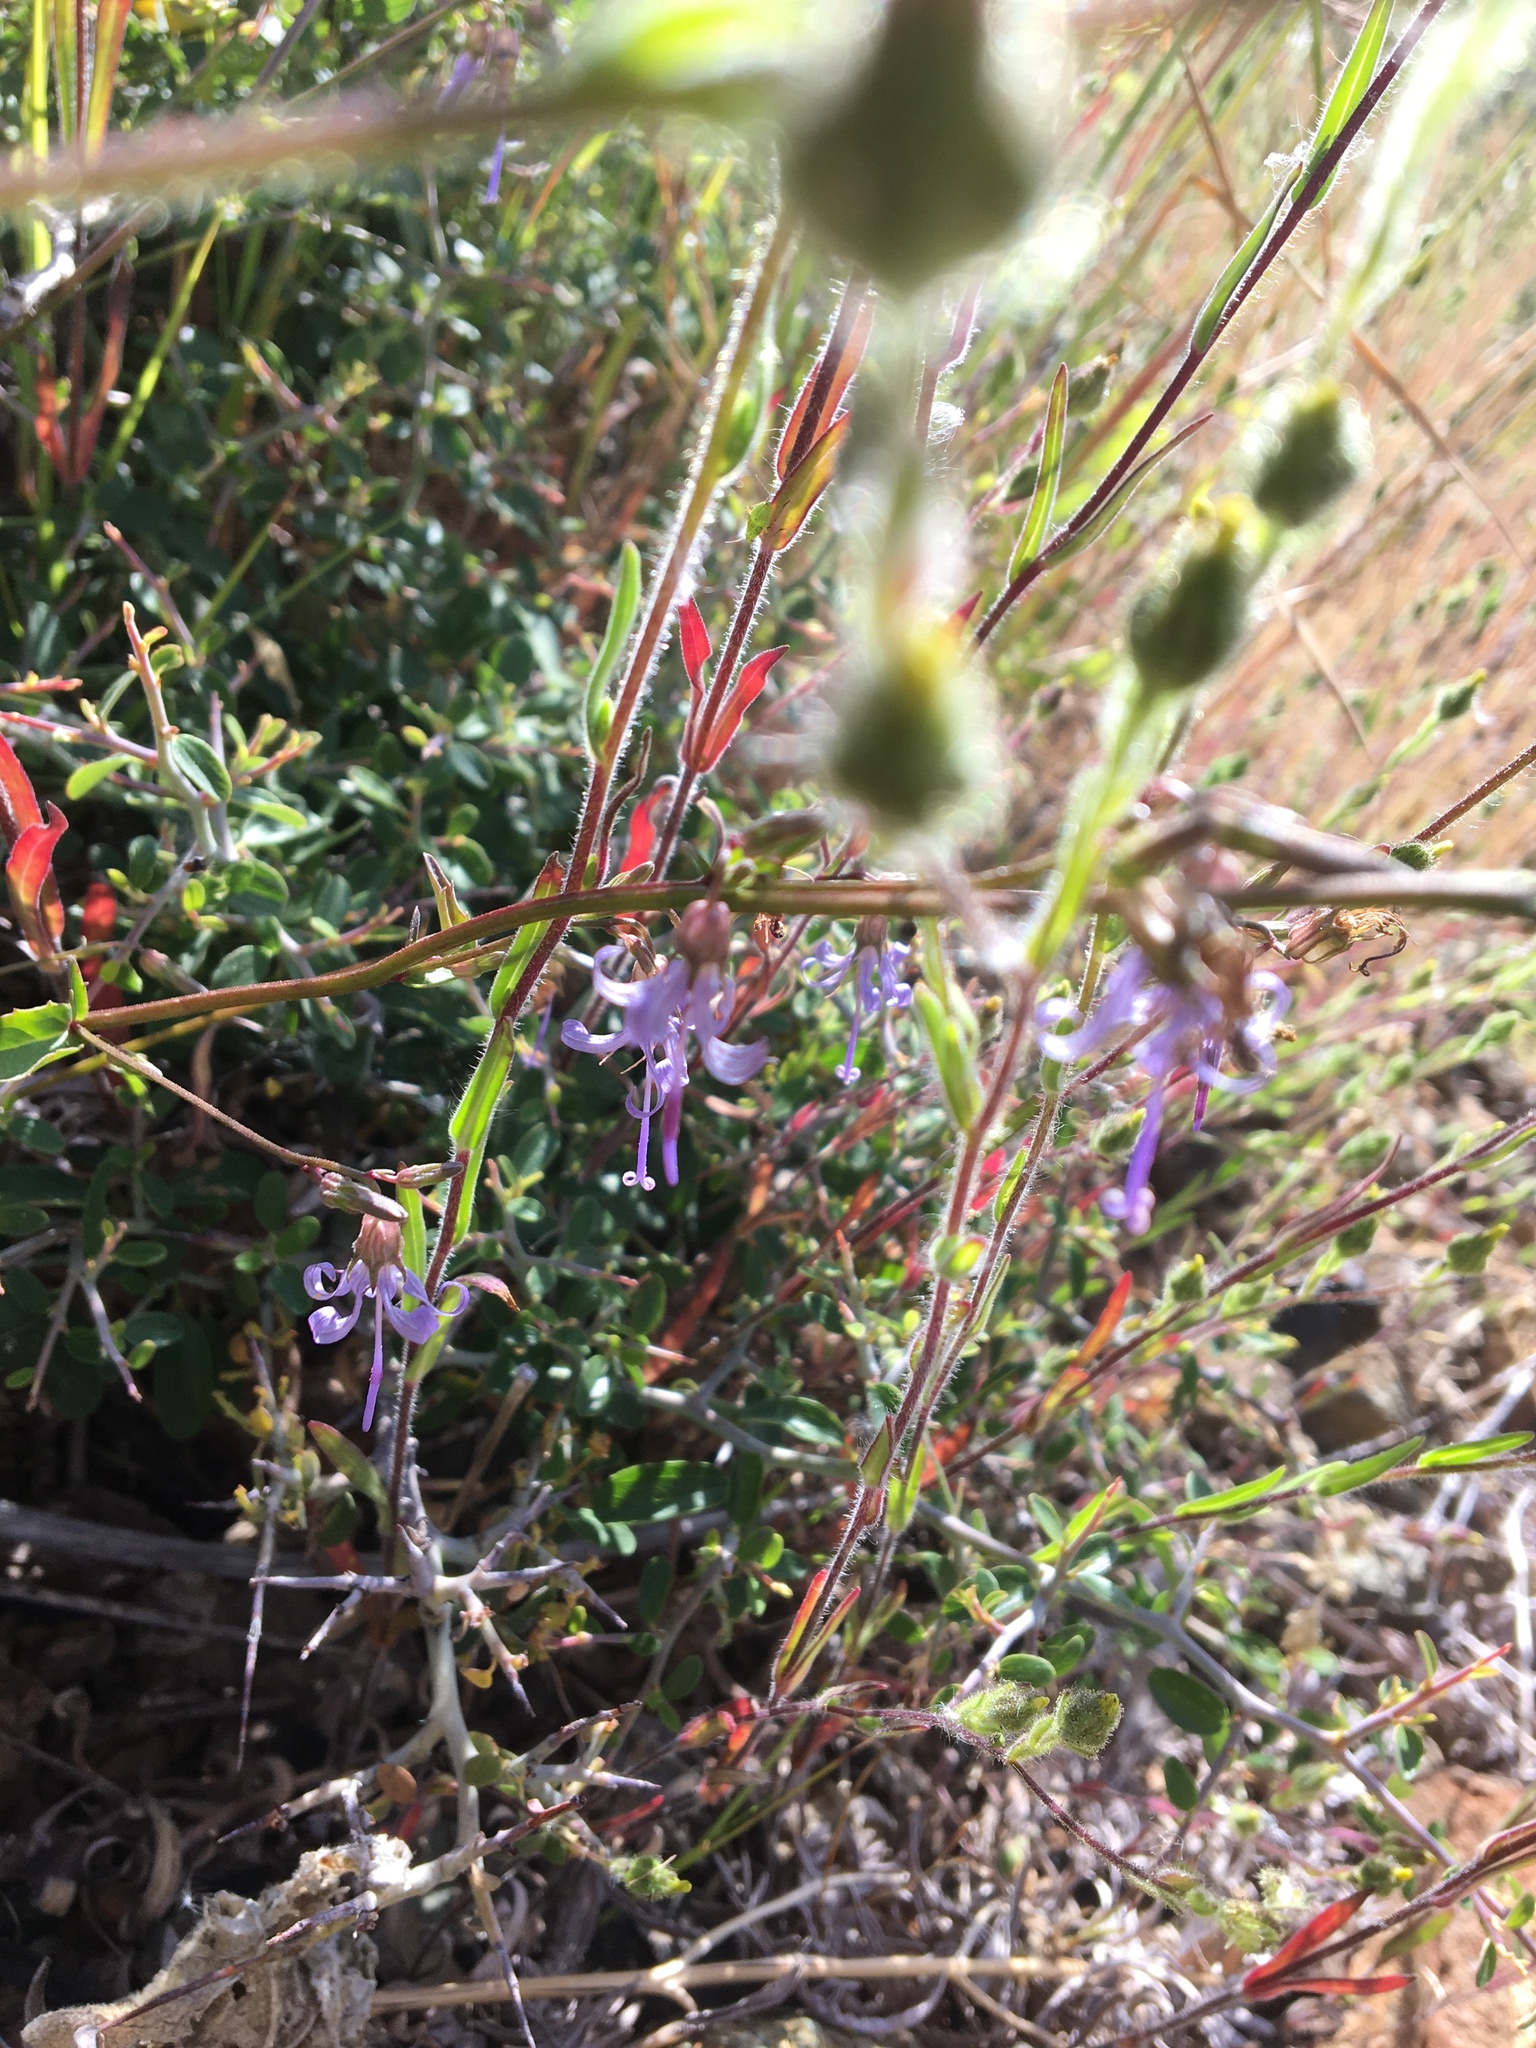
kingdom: Plantae
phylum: Tracheophyta
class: Magnoliopsida
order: Asterales
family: Campanulaceae
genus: Smithiastrum
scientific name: Smithiastrum prenanthoides
